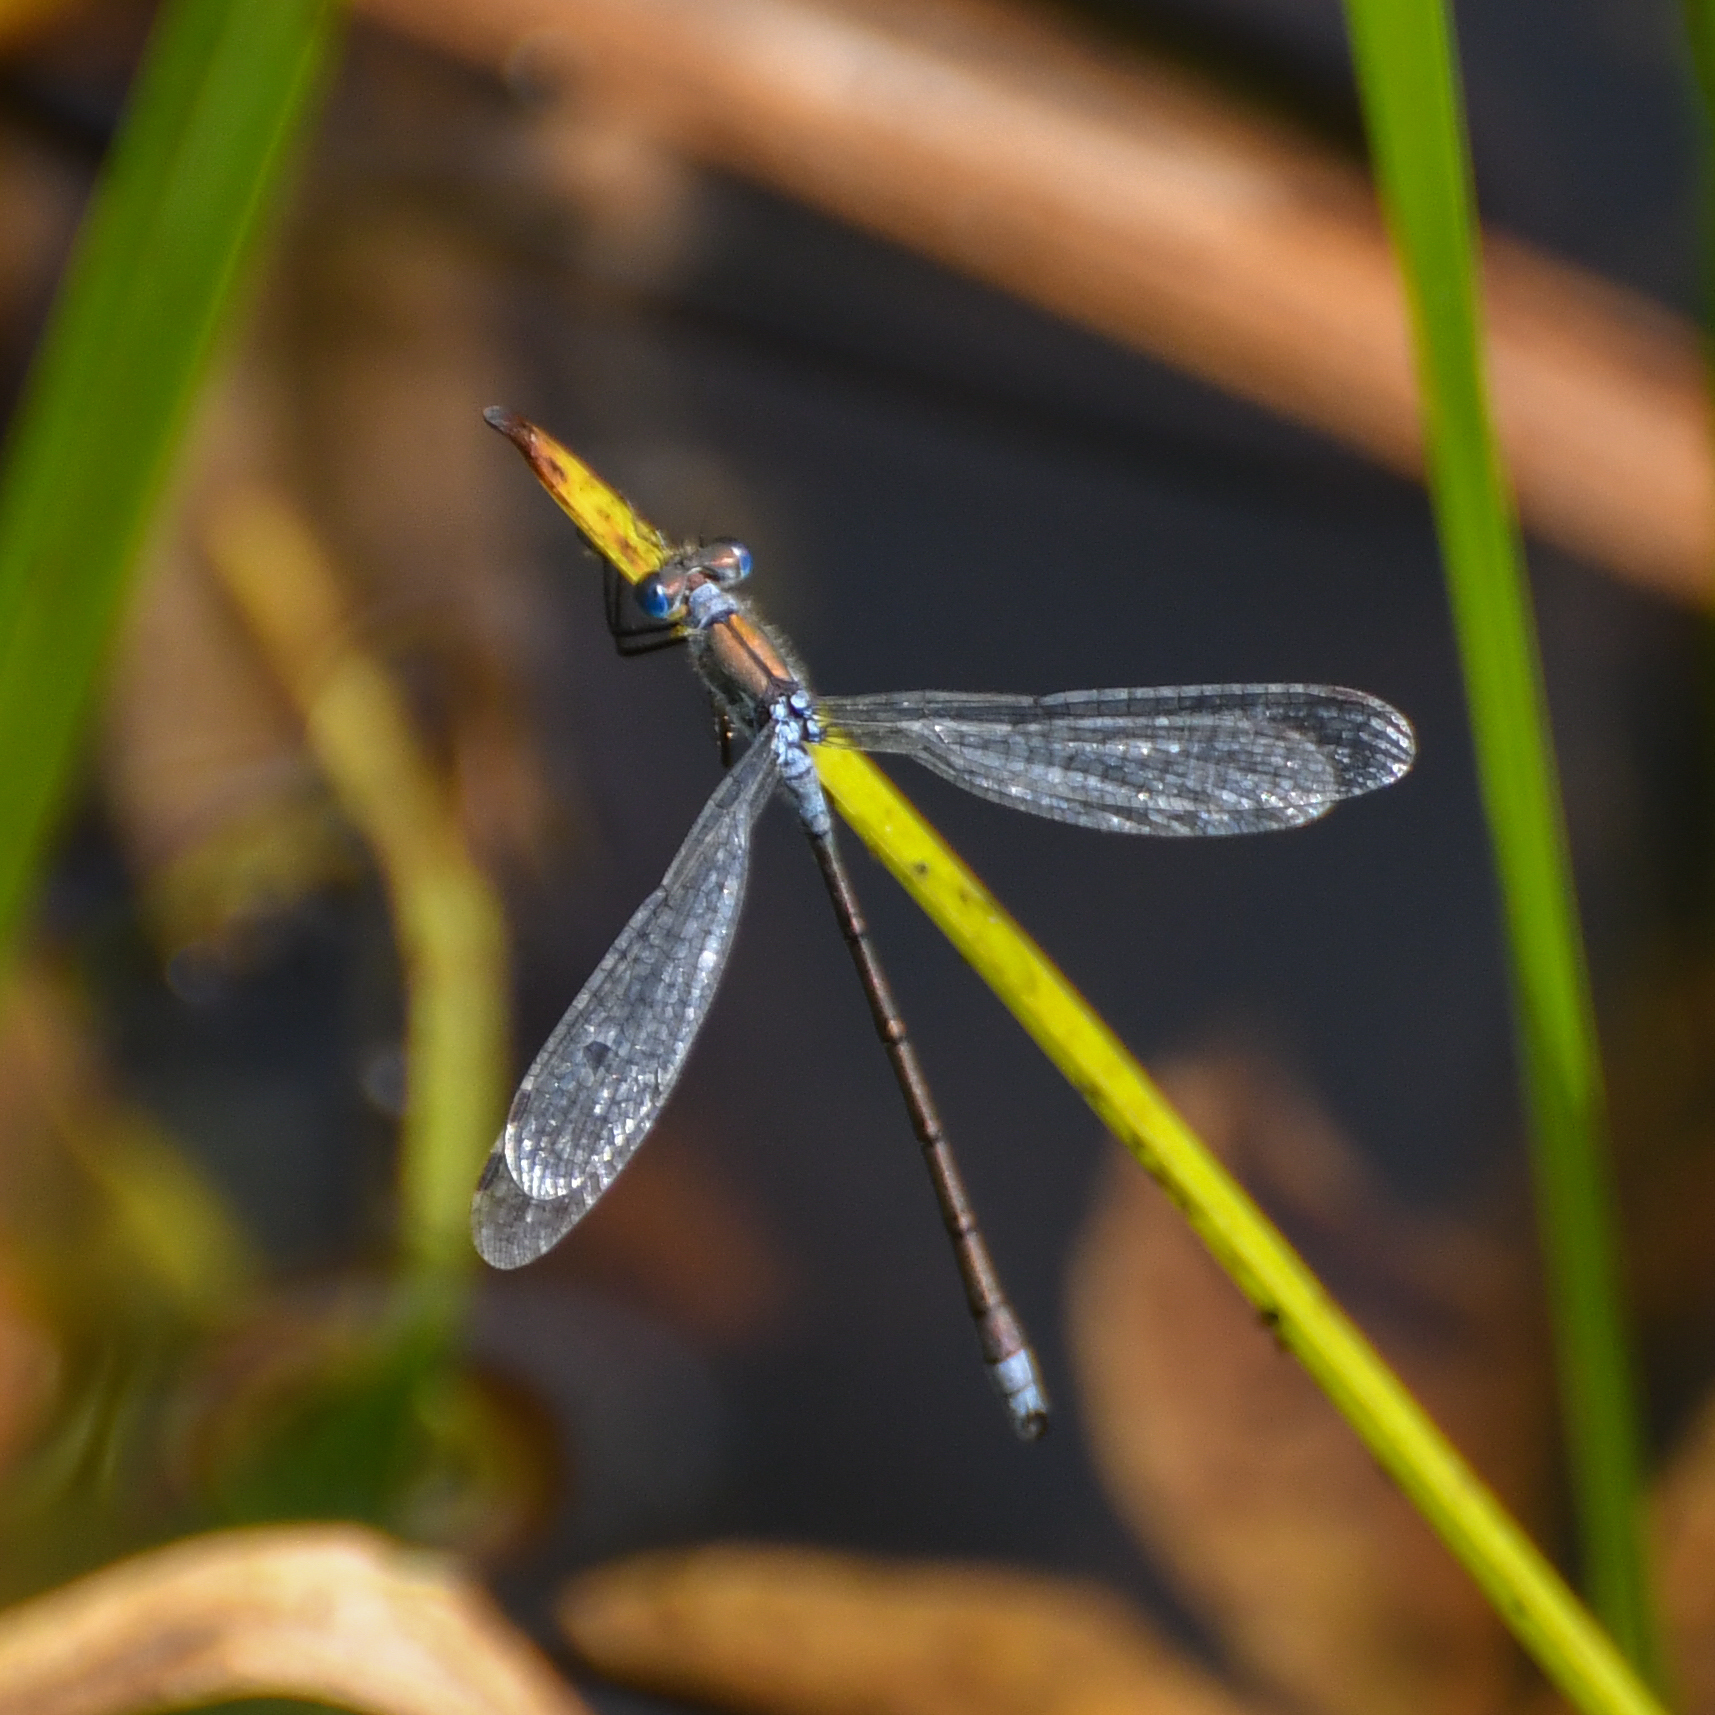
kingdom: Animalia
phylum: Arthropoda
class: Insecta
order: Odonata
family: Lestidae
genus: Lestes
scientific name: Lestes sponsa
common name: Common spreadwing
